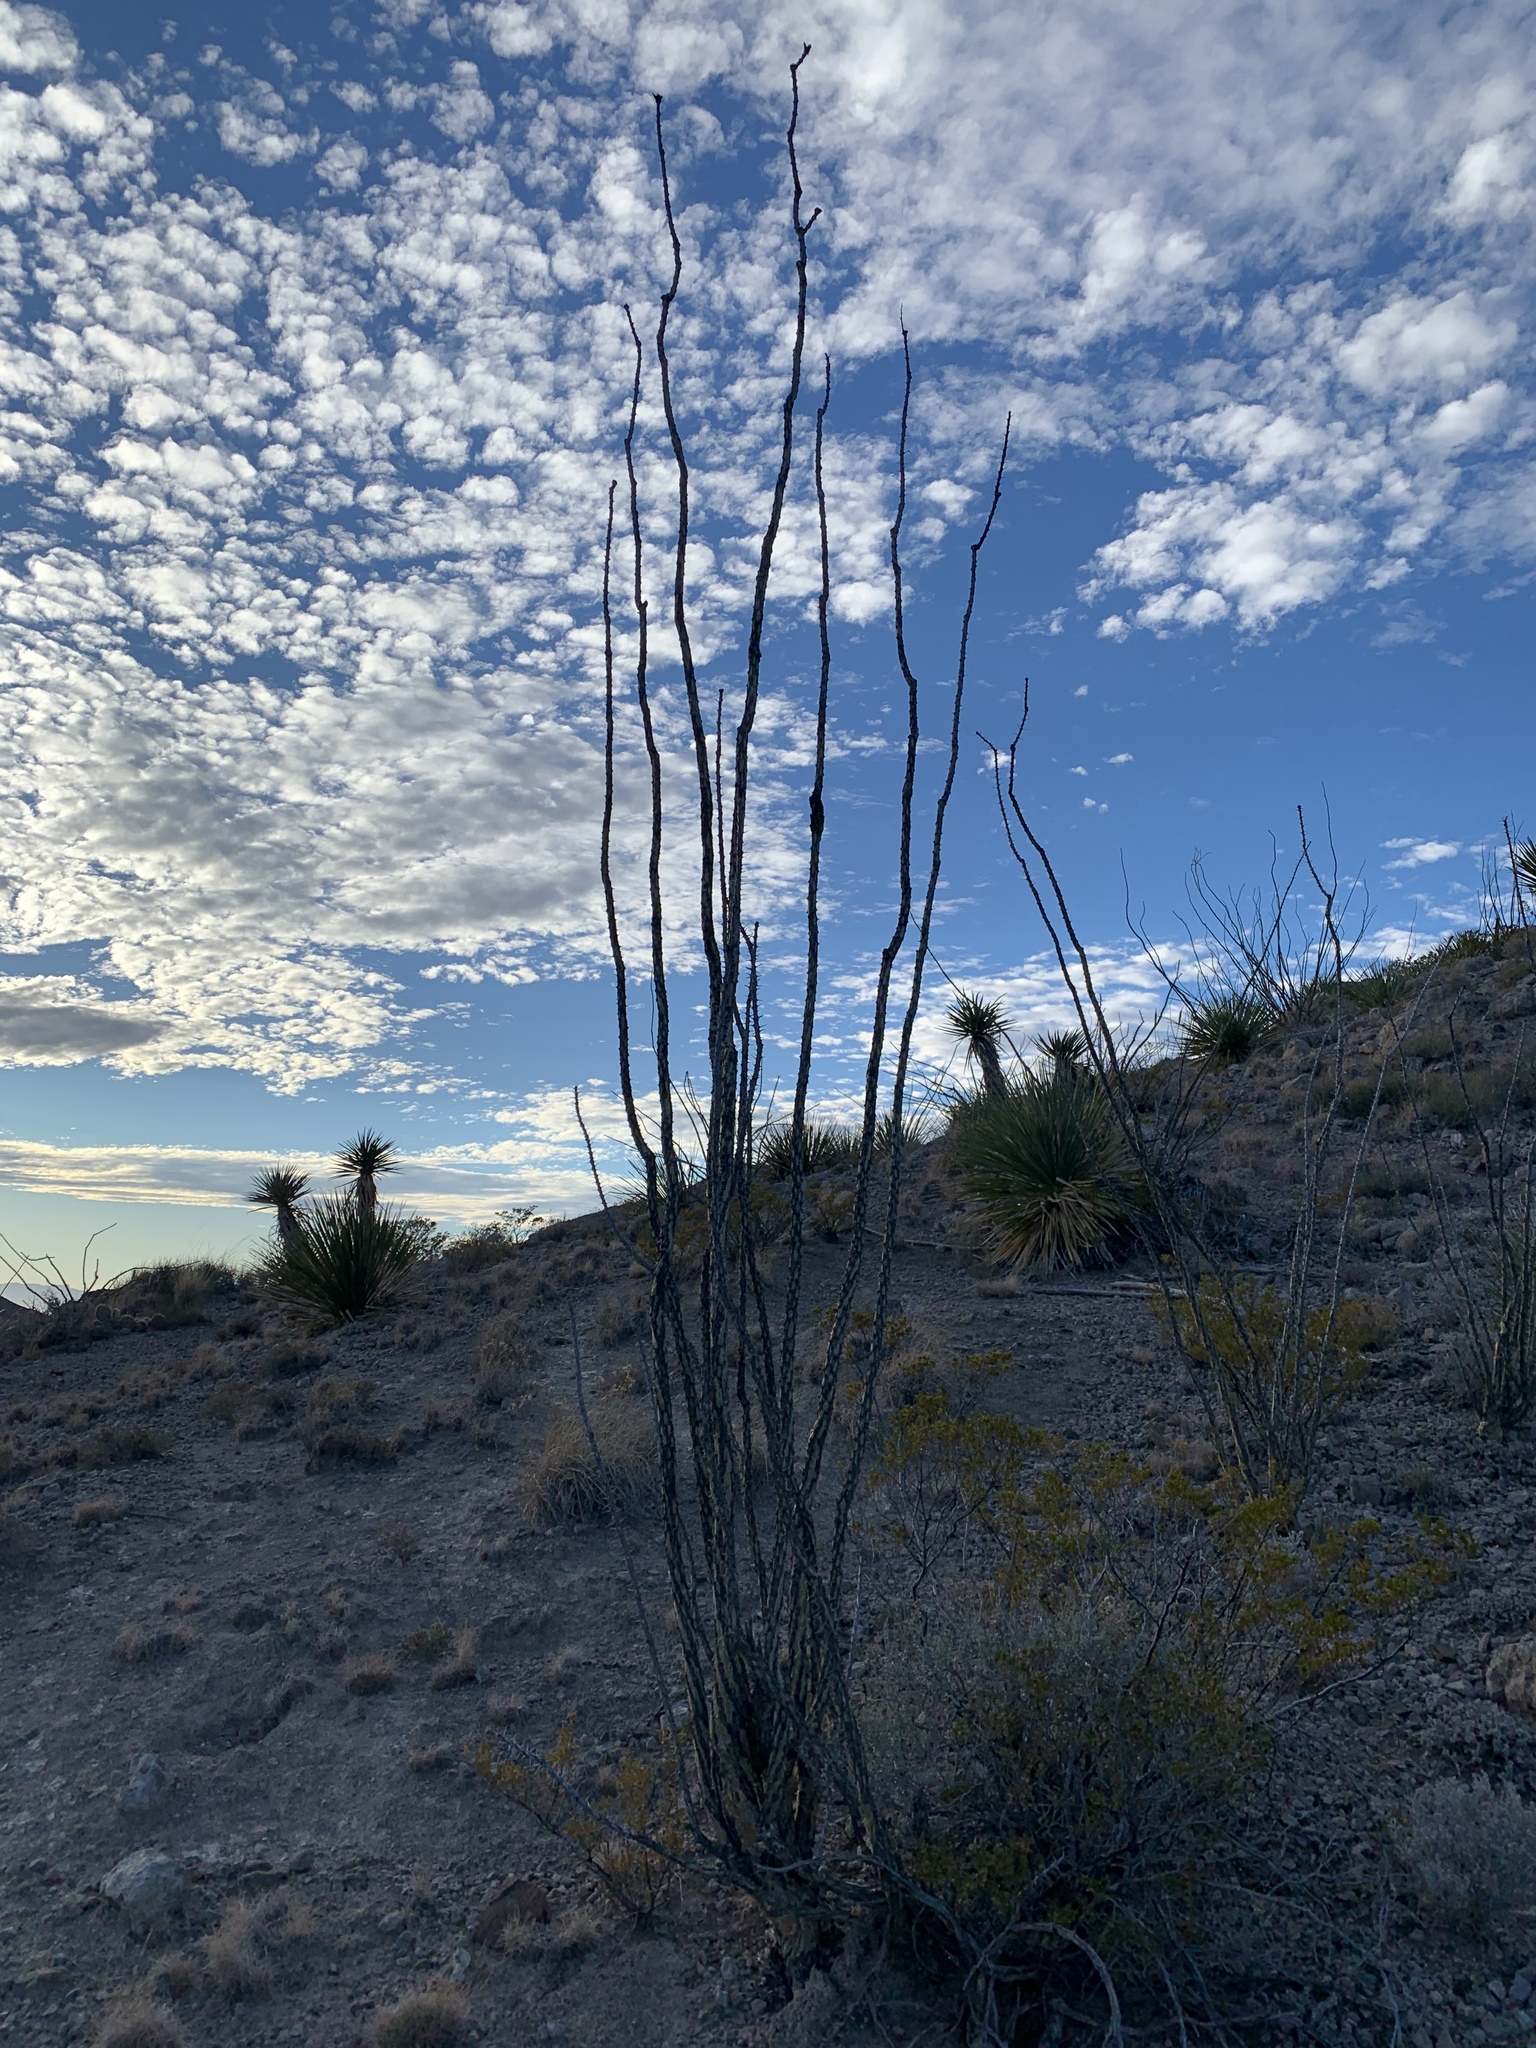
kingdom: Plantae
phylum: Tracheophyta
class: Magnoliopsida
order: Ericales
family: Fouquieriaceae
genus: Fouquieria
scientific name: Fouquieria splendens
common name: Vine-cactus
